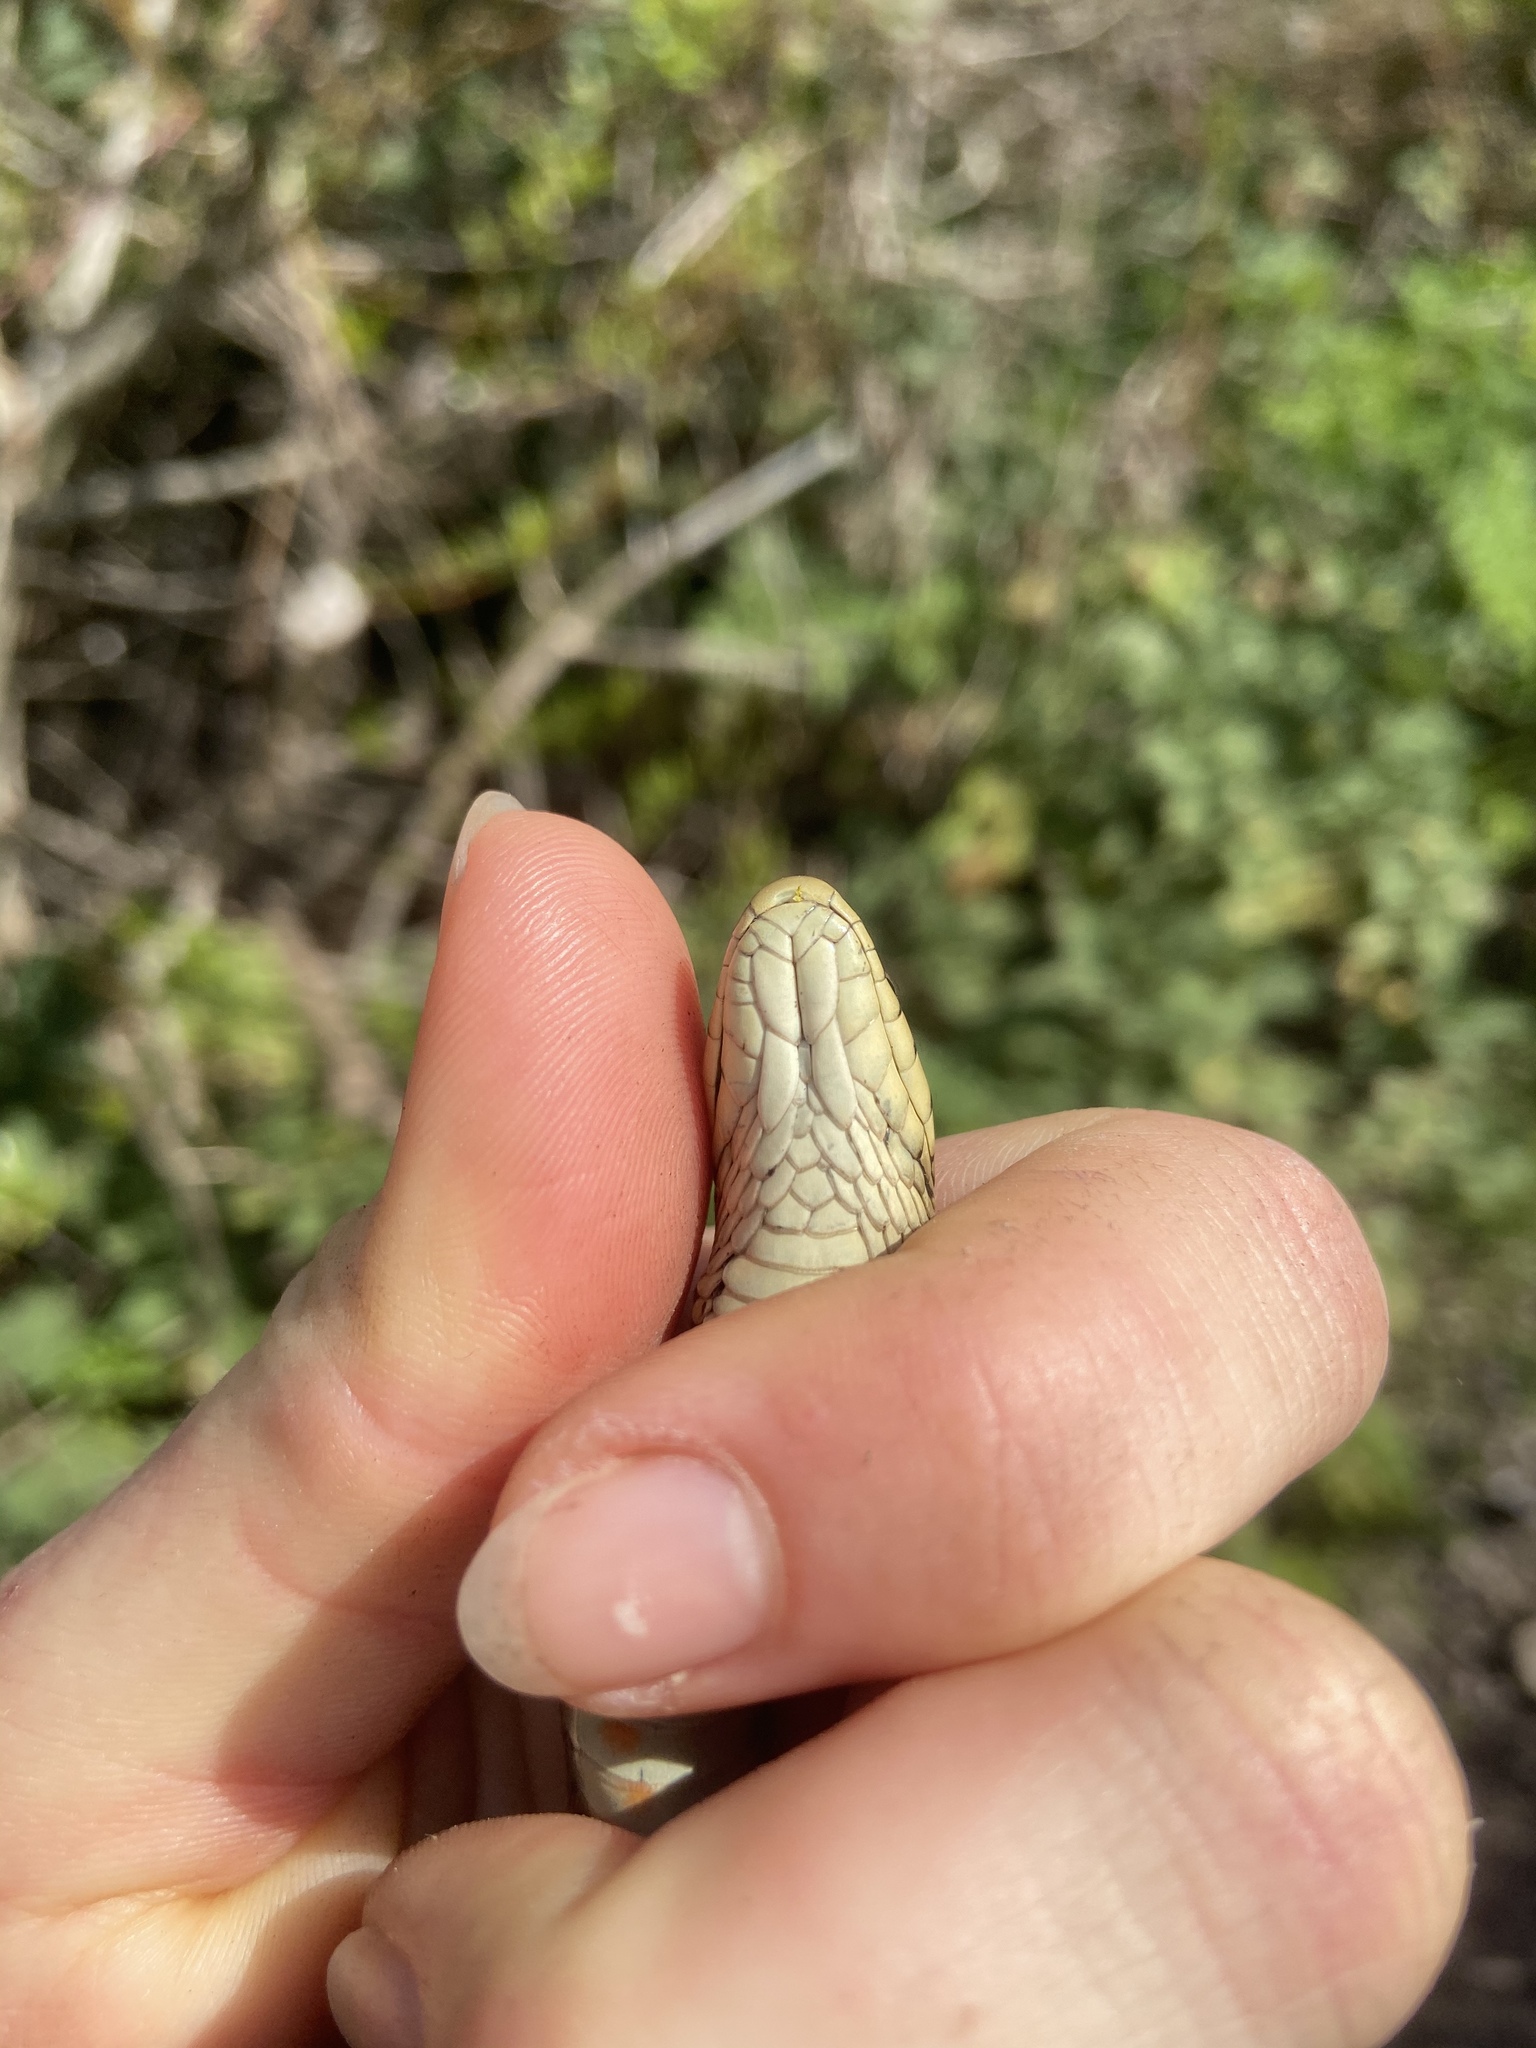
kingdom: Animalia
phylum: Chordata
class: Squamata
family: Colubridae
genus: Thamnophis
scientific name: Thamnophis elegans
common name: Western terrestrial garter snake
